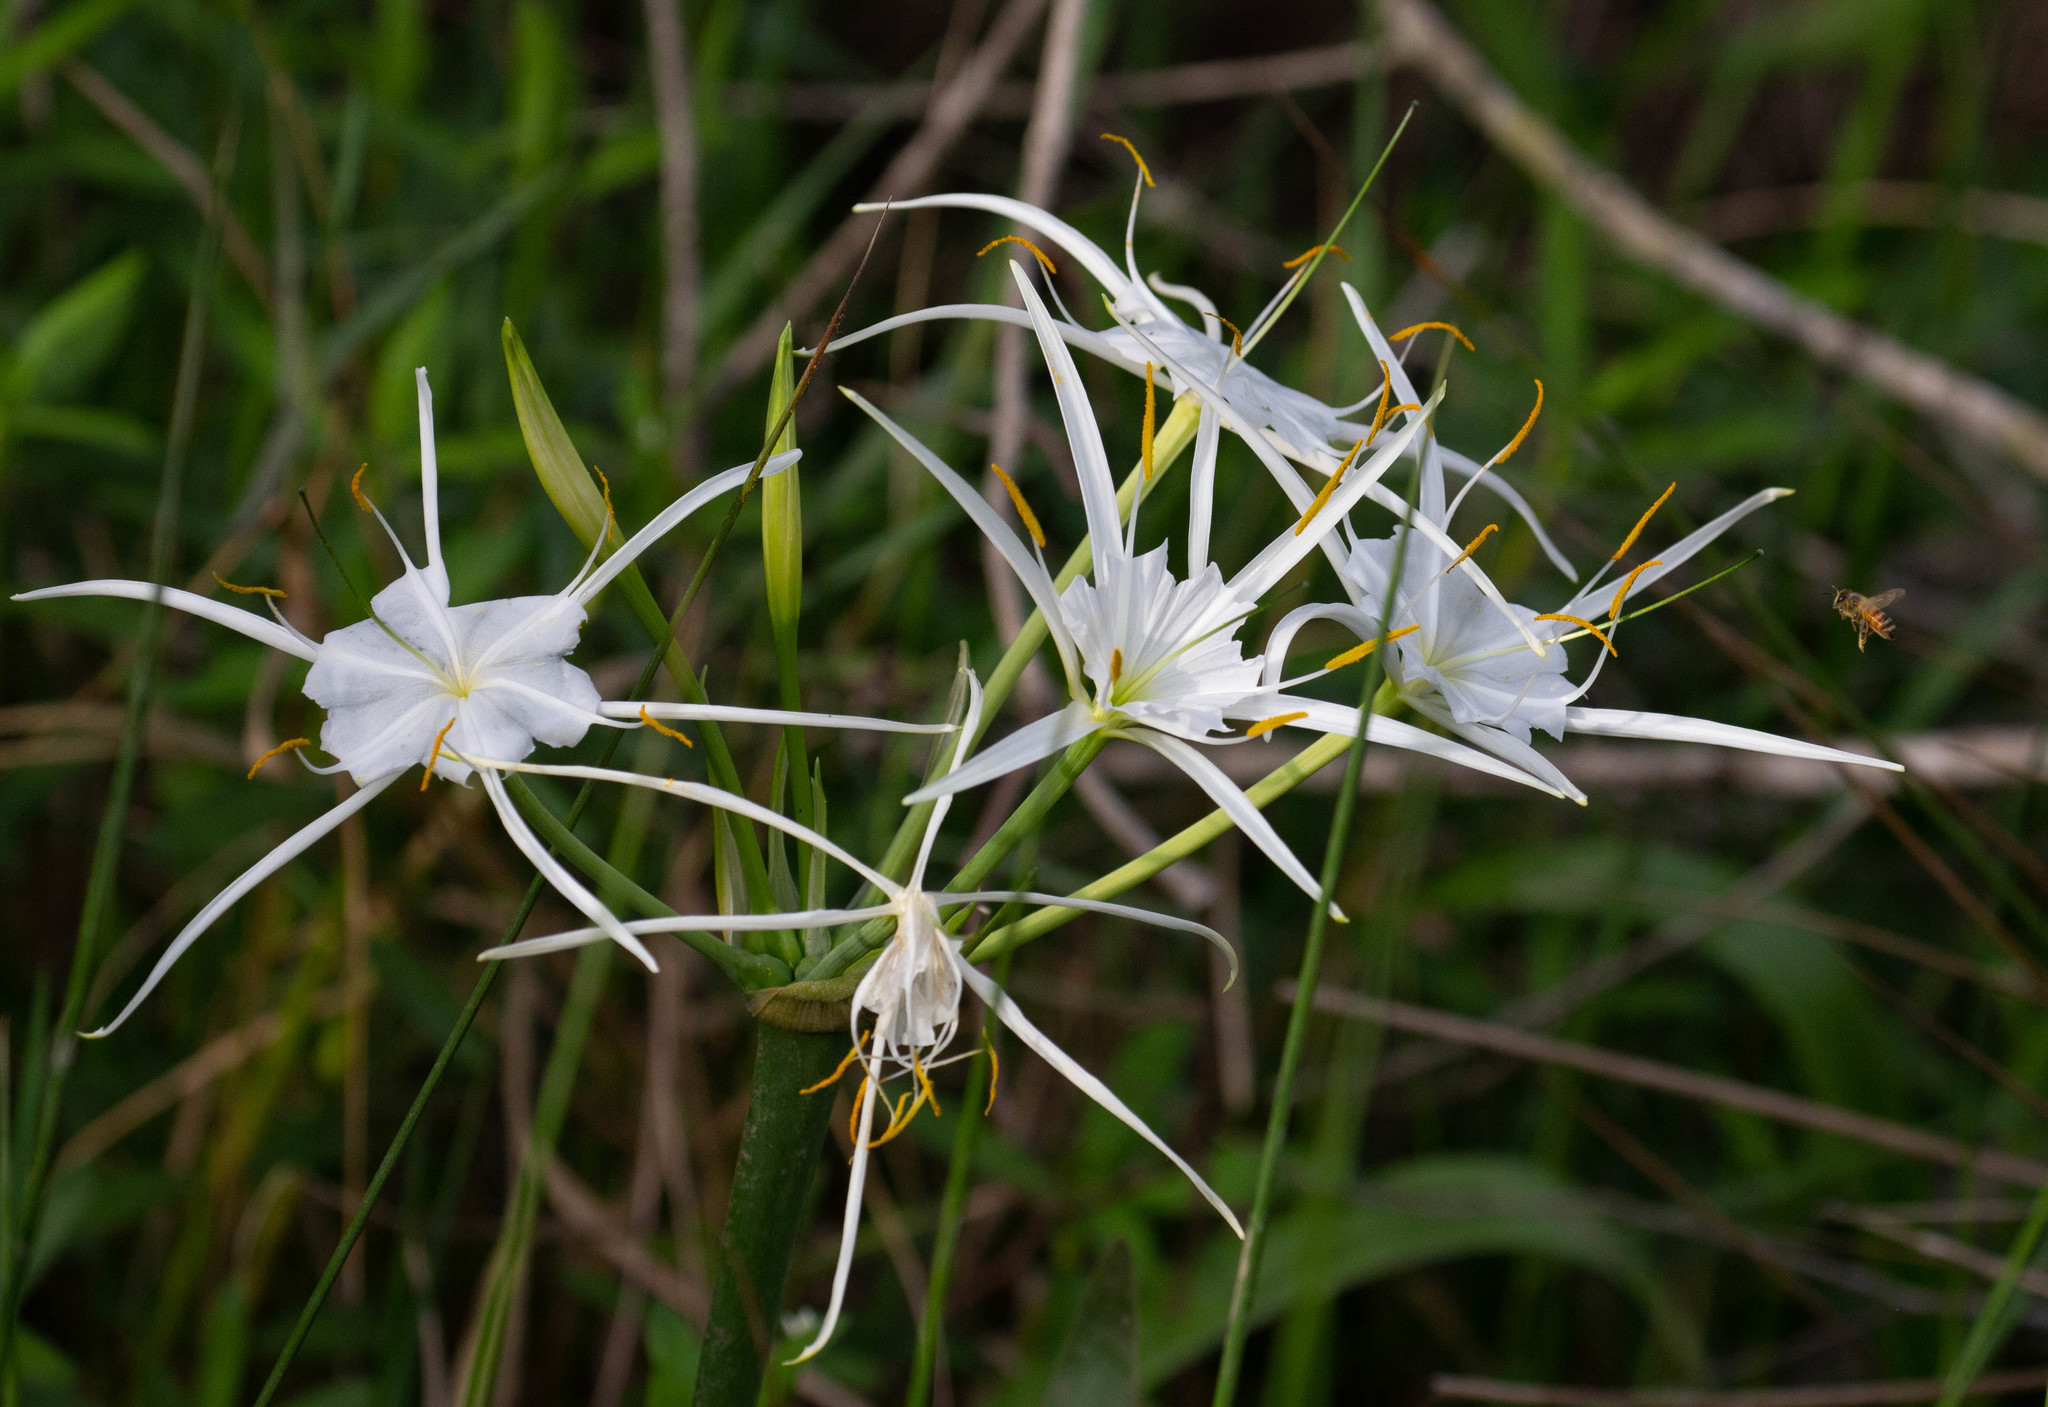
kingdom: Plantae
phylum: Tracheophyta
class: Liliopsida
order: Asparagales
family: Amaryllidaceae
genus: Hymenocallis
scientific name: Hymenocallis liriosme
